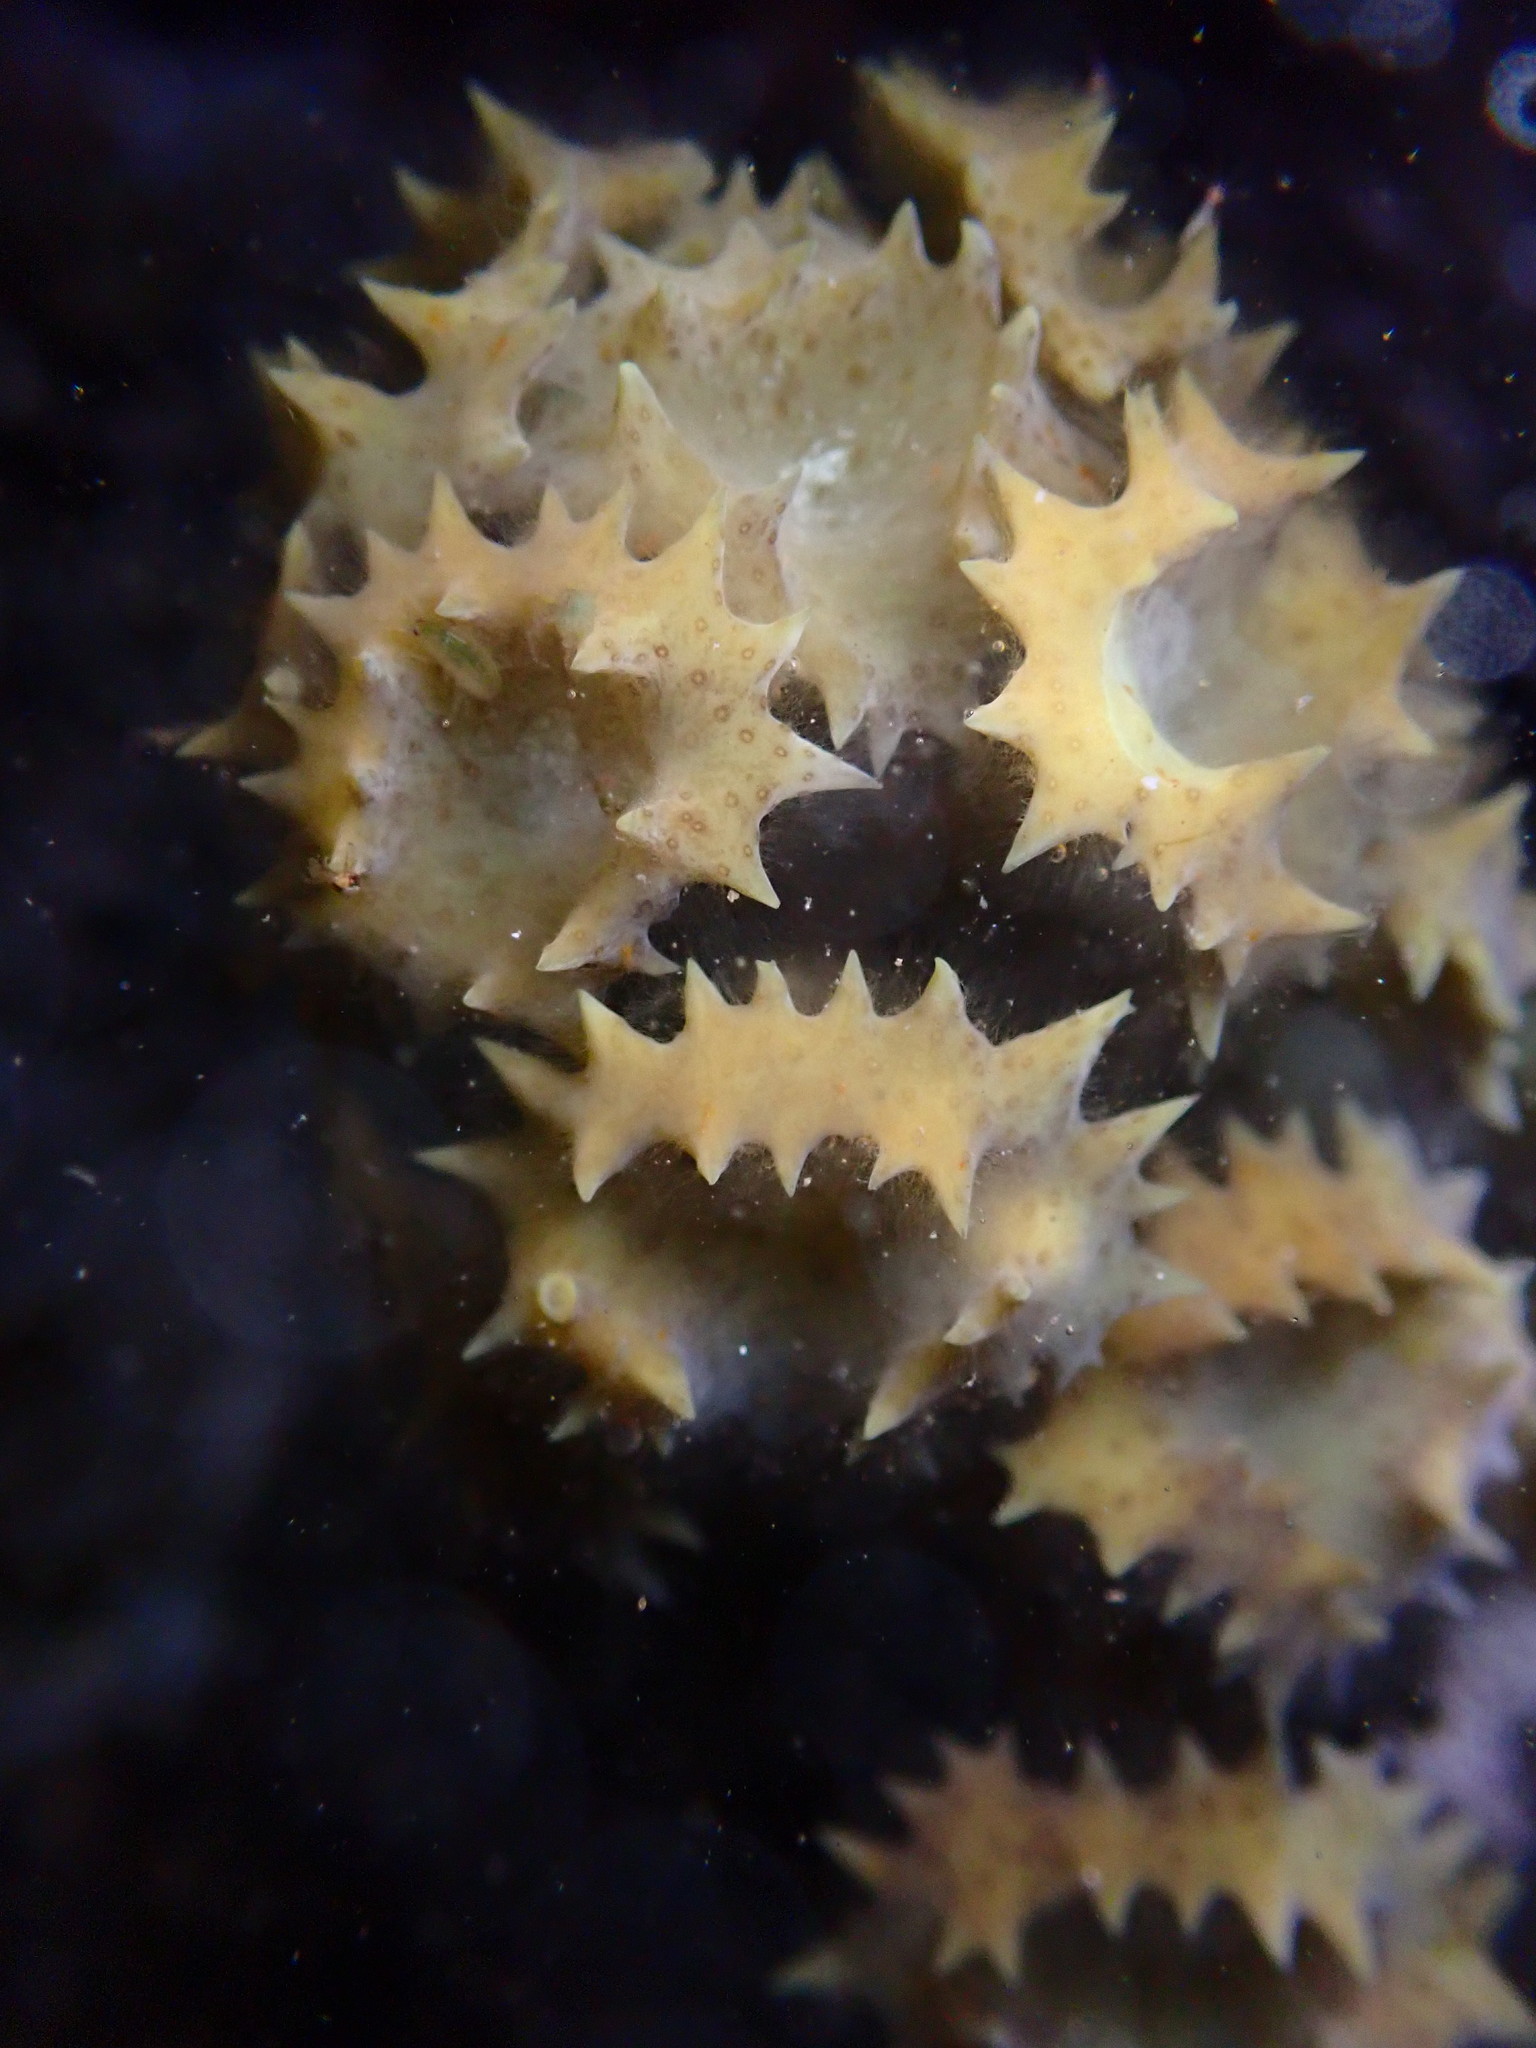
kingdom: Chromista
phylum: Ochrophyta
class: Phaeophyceae
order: Fucales
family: Sargassaceae
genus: Turbinaria
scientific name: Turbinaria ornata
